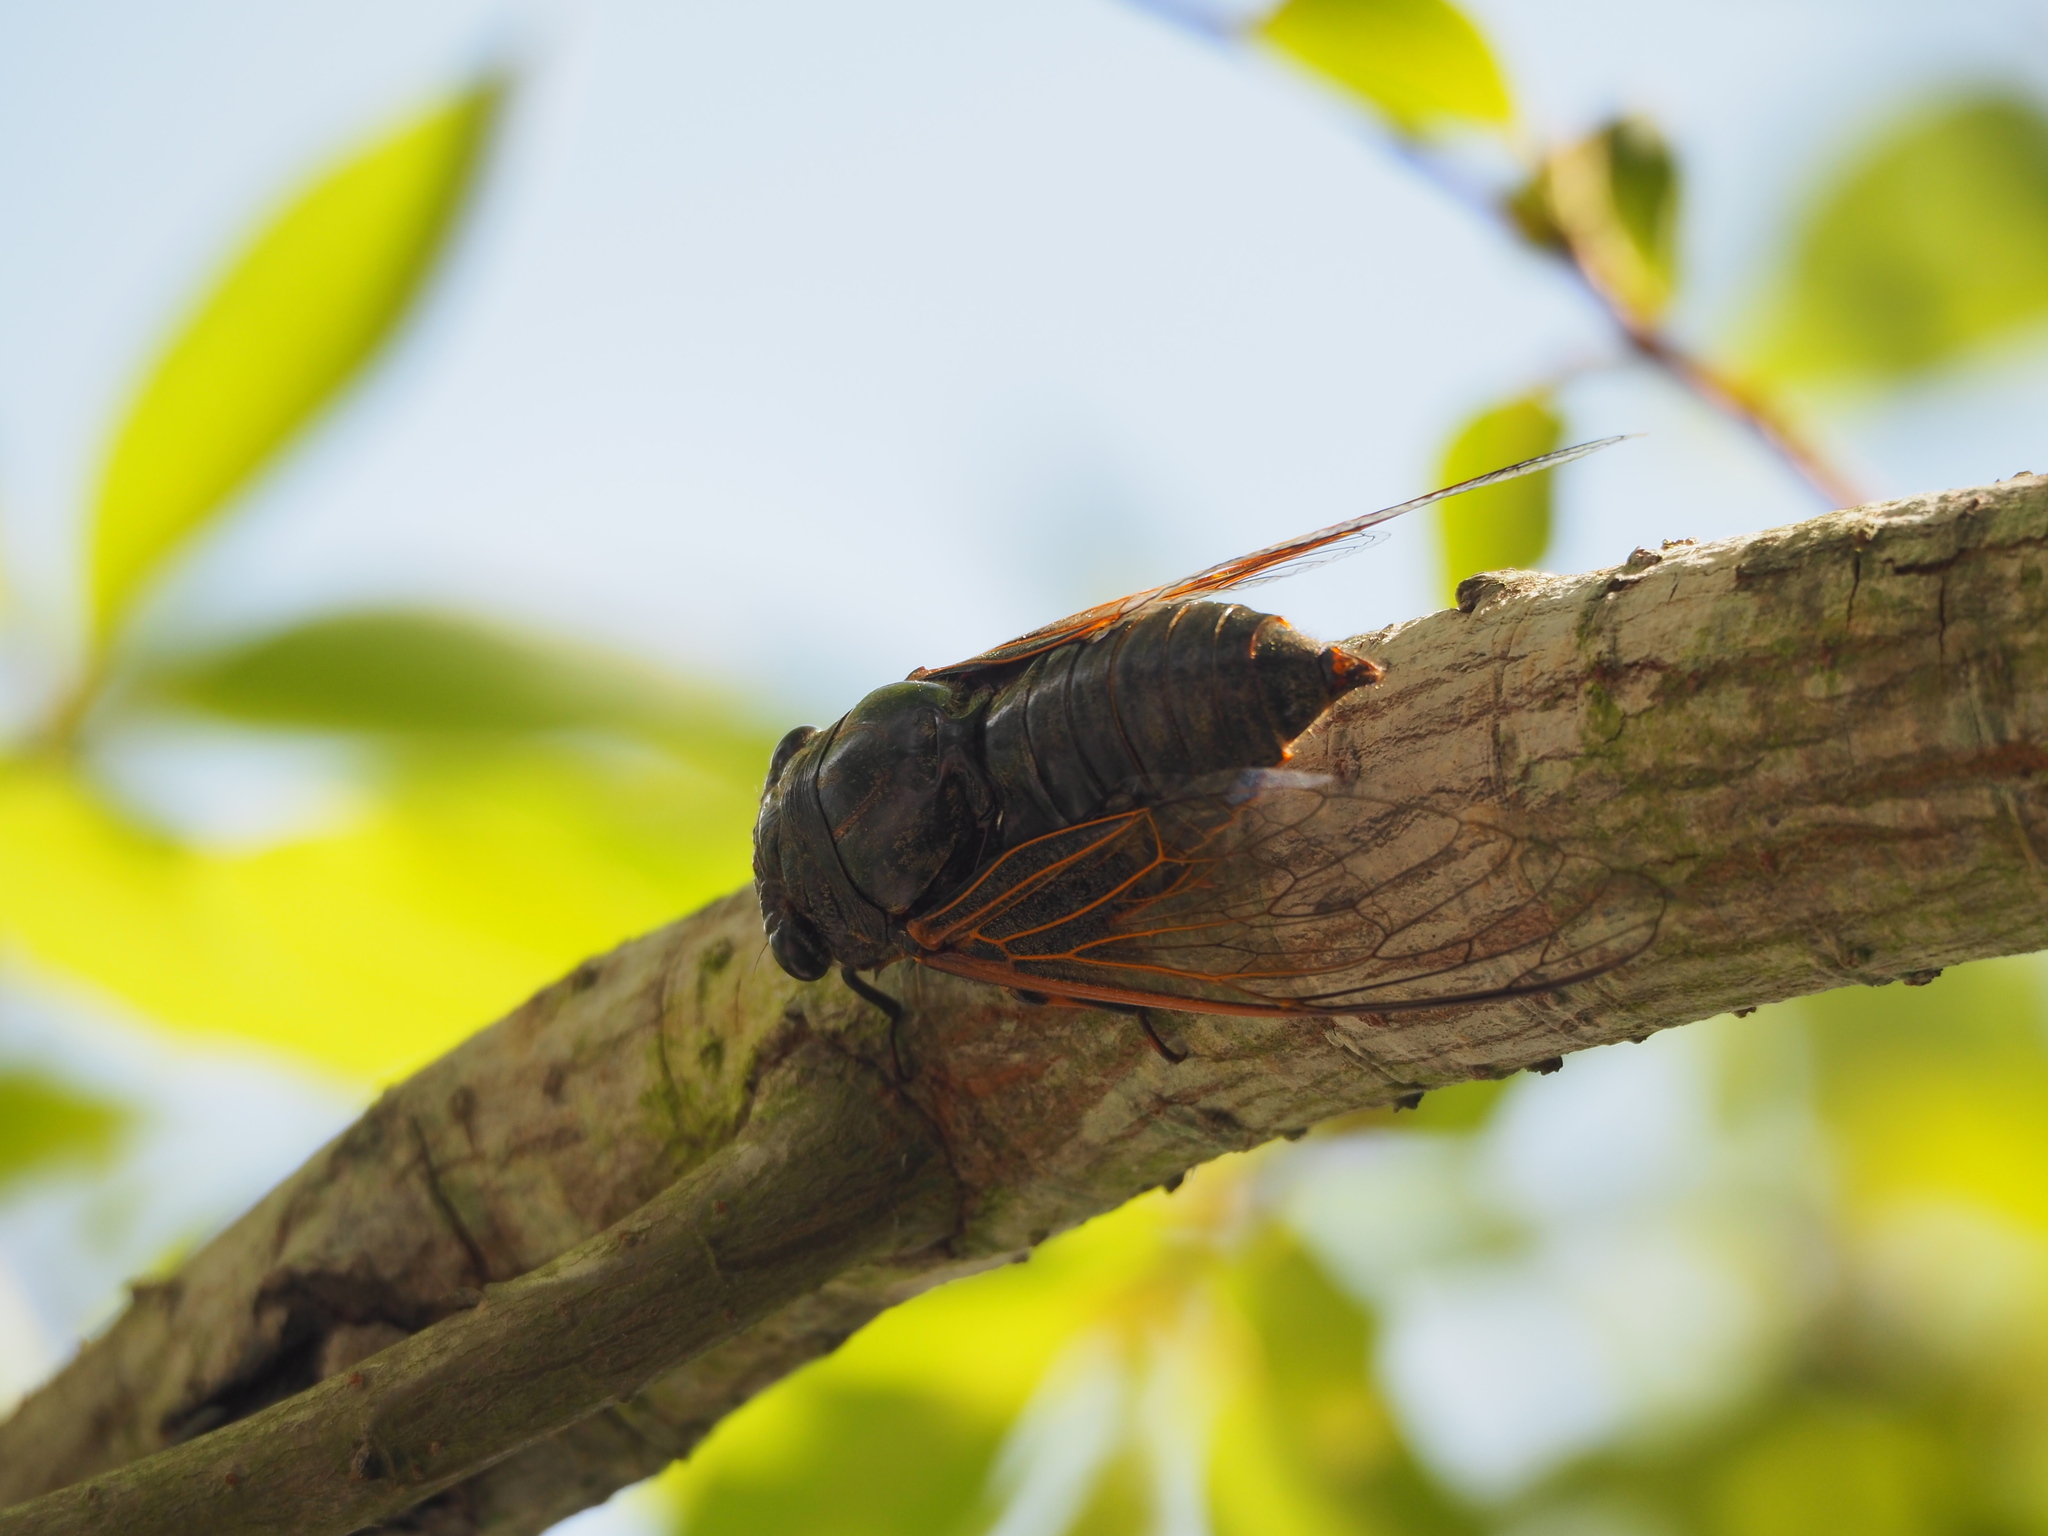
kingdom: Animalia
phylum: Arthropoda
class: Insecta
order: Hemiptera
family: Cicadidae
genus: Cryptotympana
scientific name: Cryptotympana atrata
